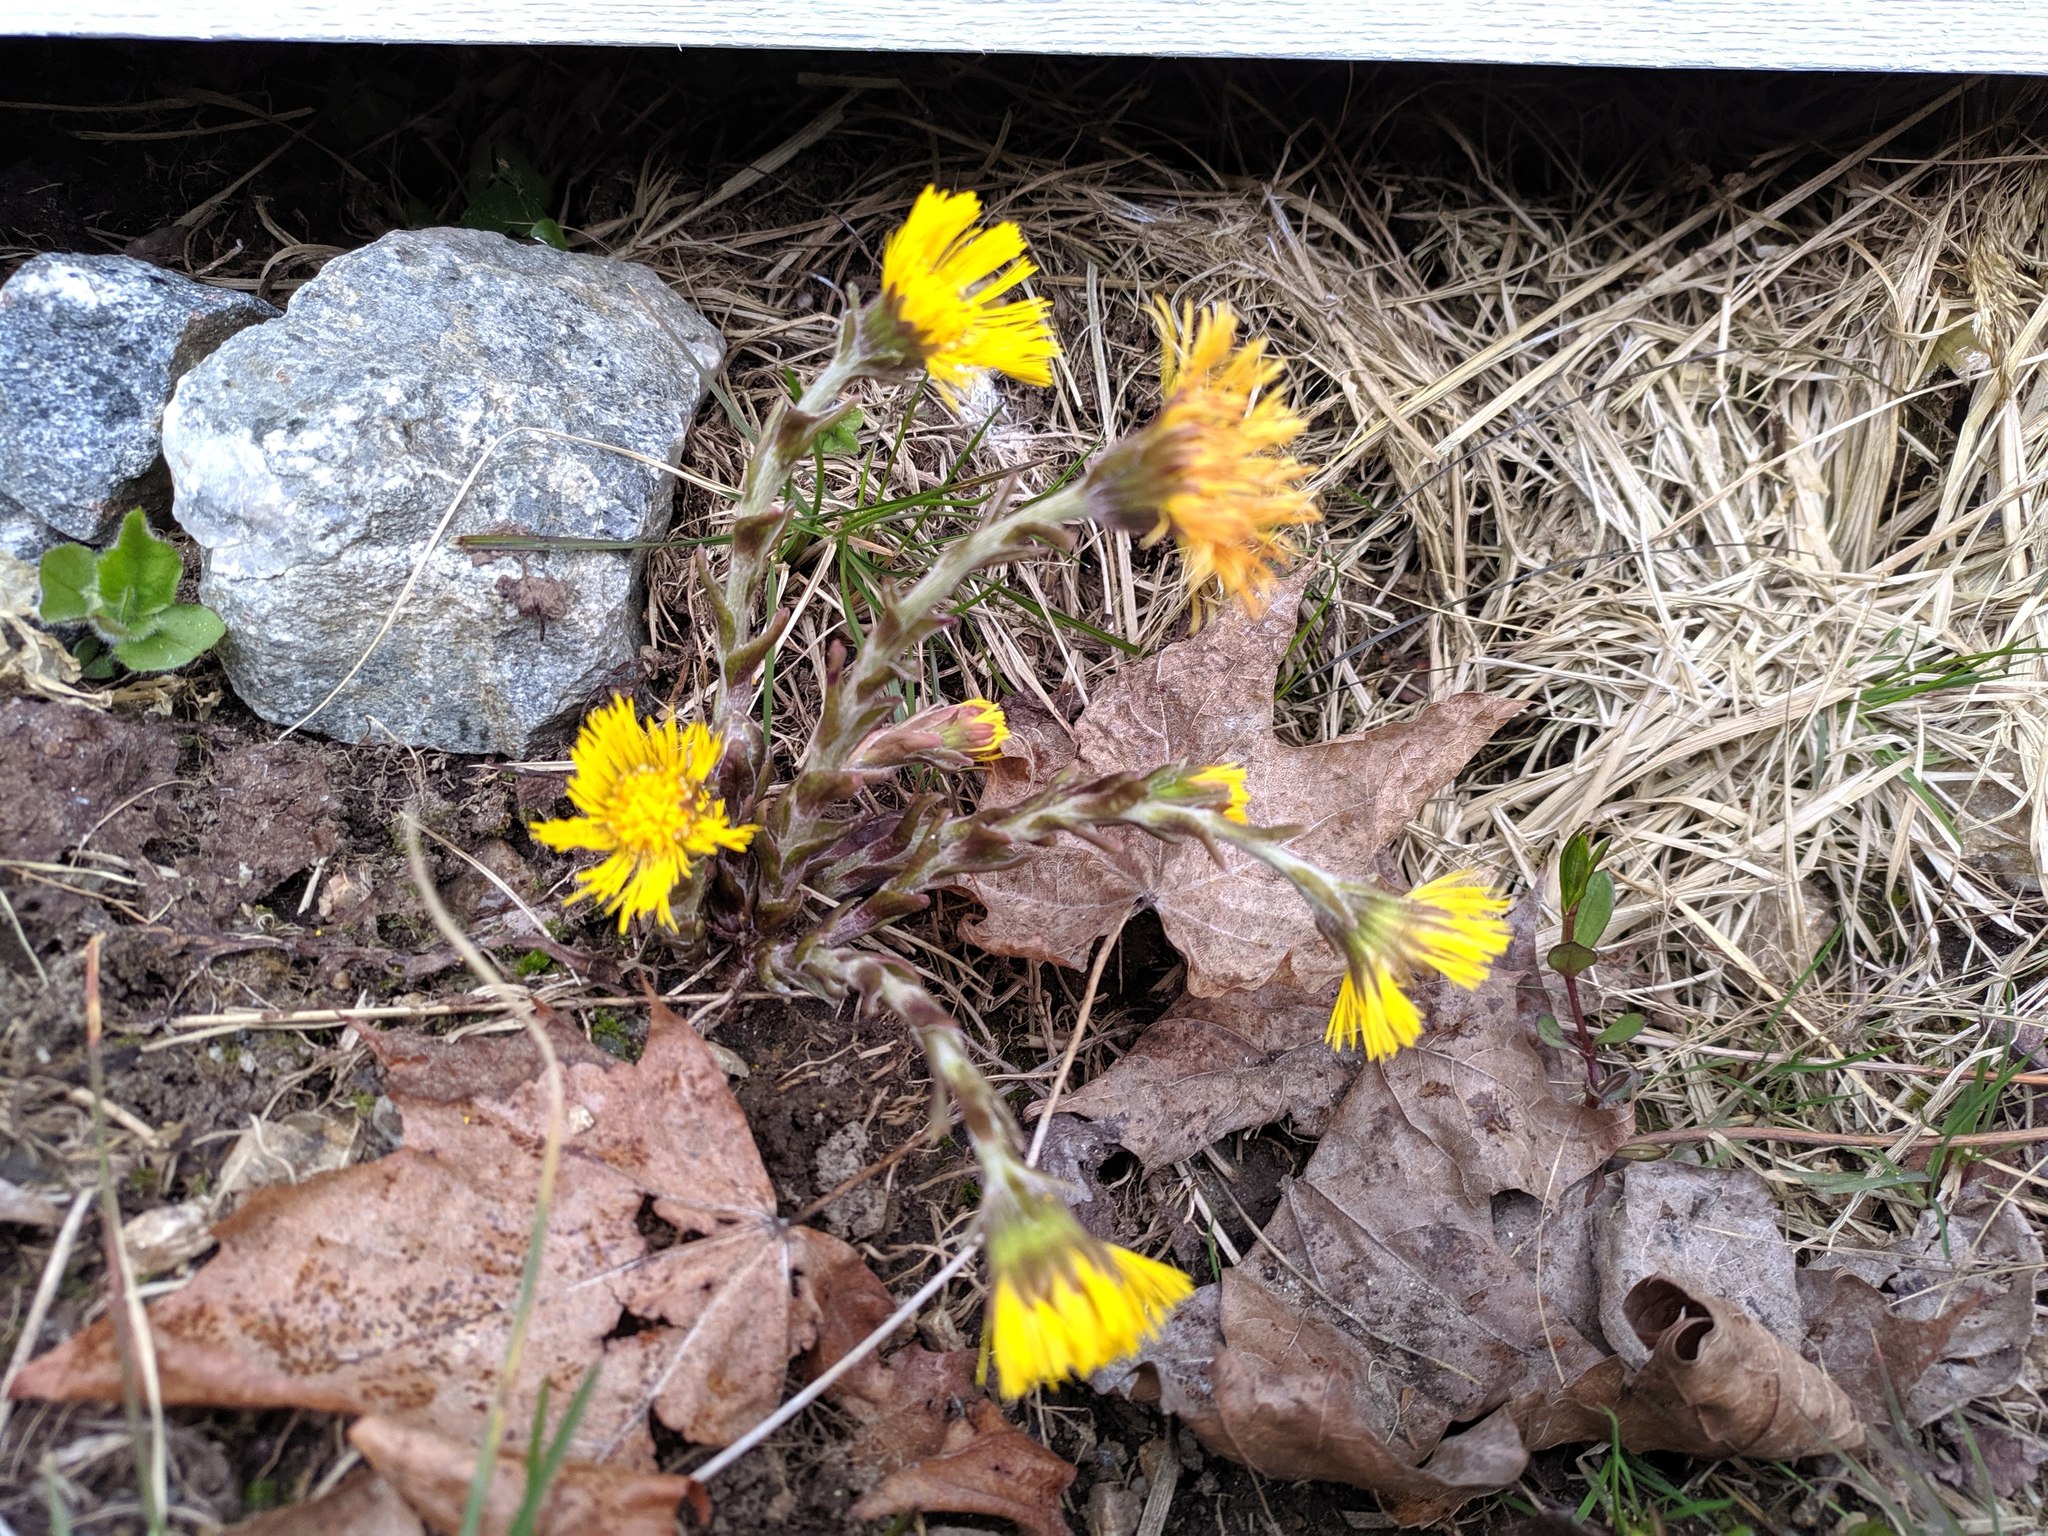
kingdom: Plantae
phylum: Tracheophyta
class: Magnoliopsida
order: Asterales
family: Asteraceae
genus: Tussilago
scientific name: Tussilago farfara
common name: Coltsfoot
